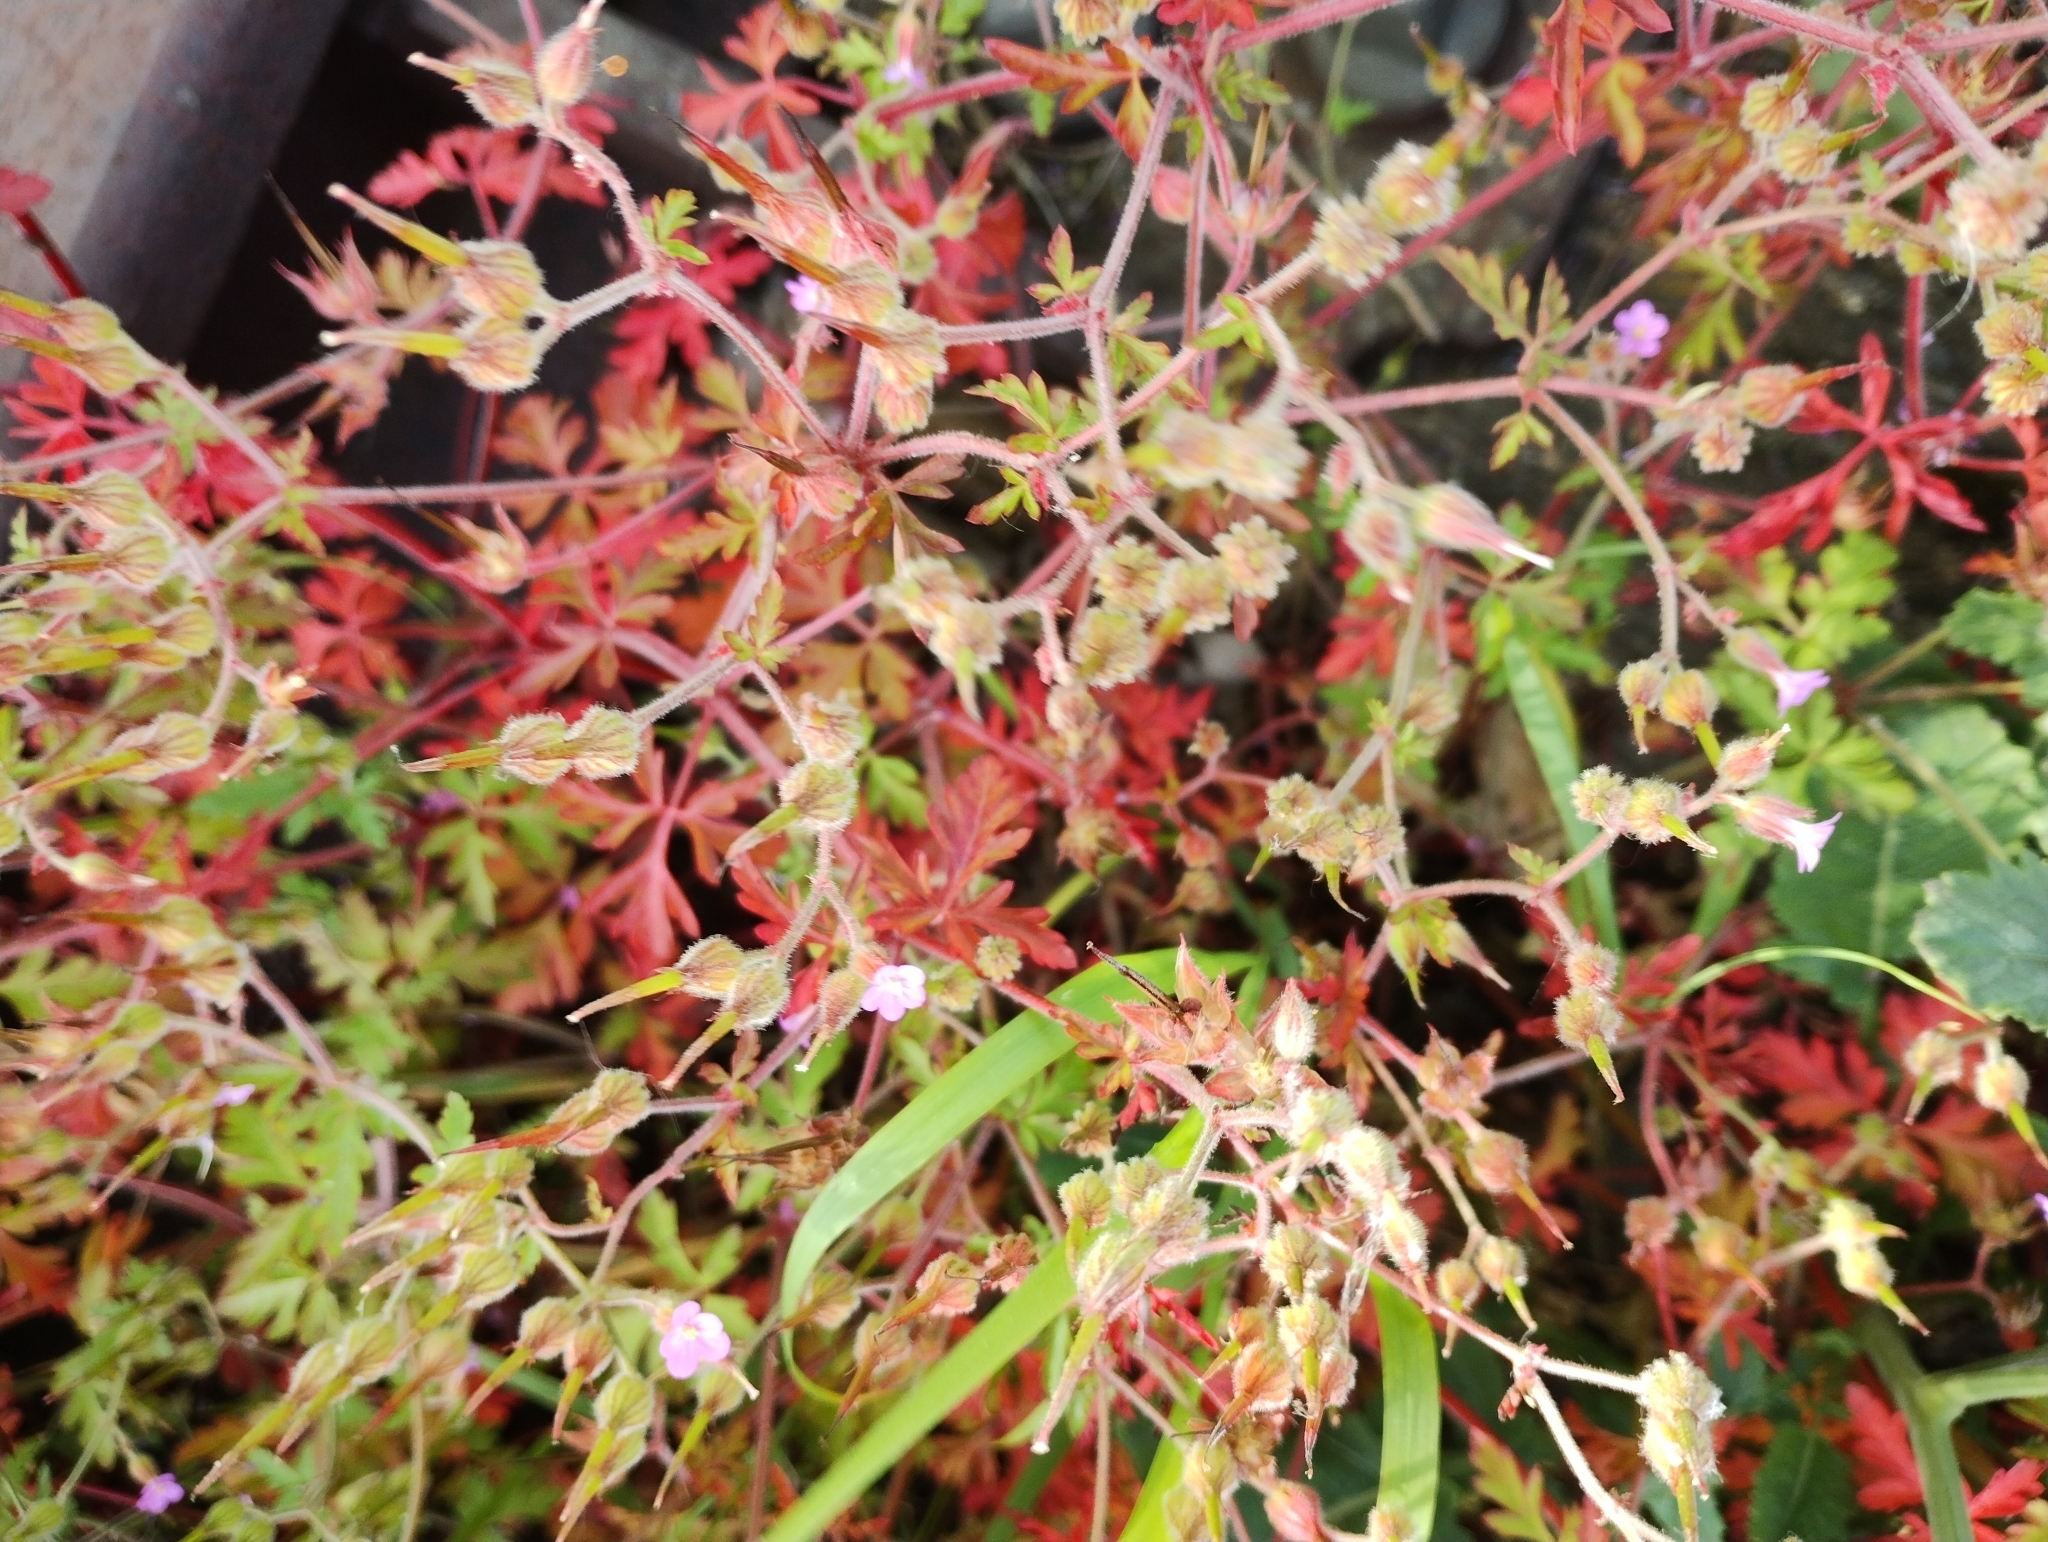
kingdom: Plantae
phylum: Tracheophyta
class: Magnoliopsida
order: Geraniales
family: Geraniaceae
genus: Geranium
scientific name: Geranium purpureum
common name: Little-robin
